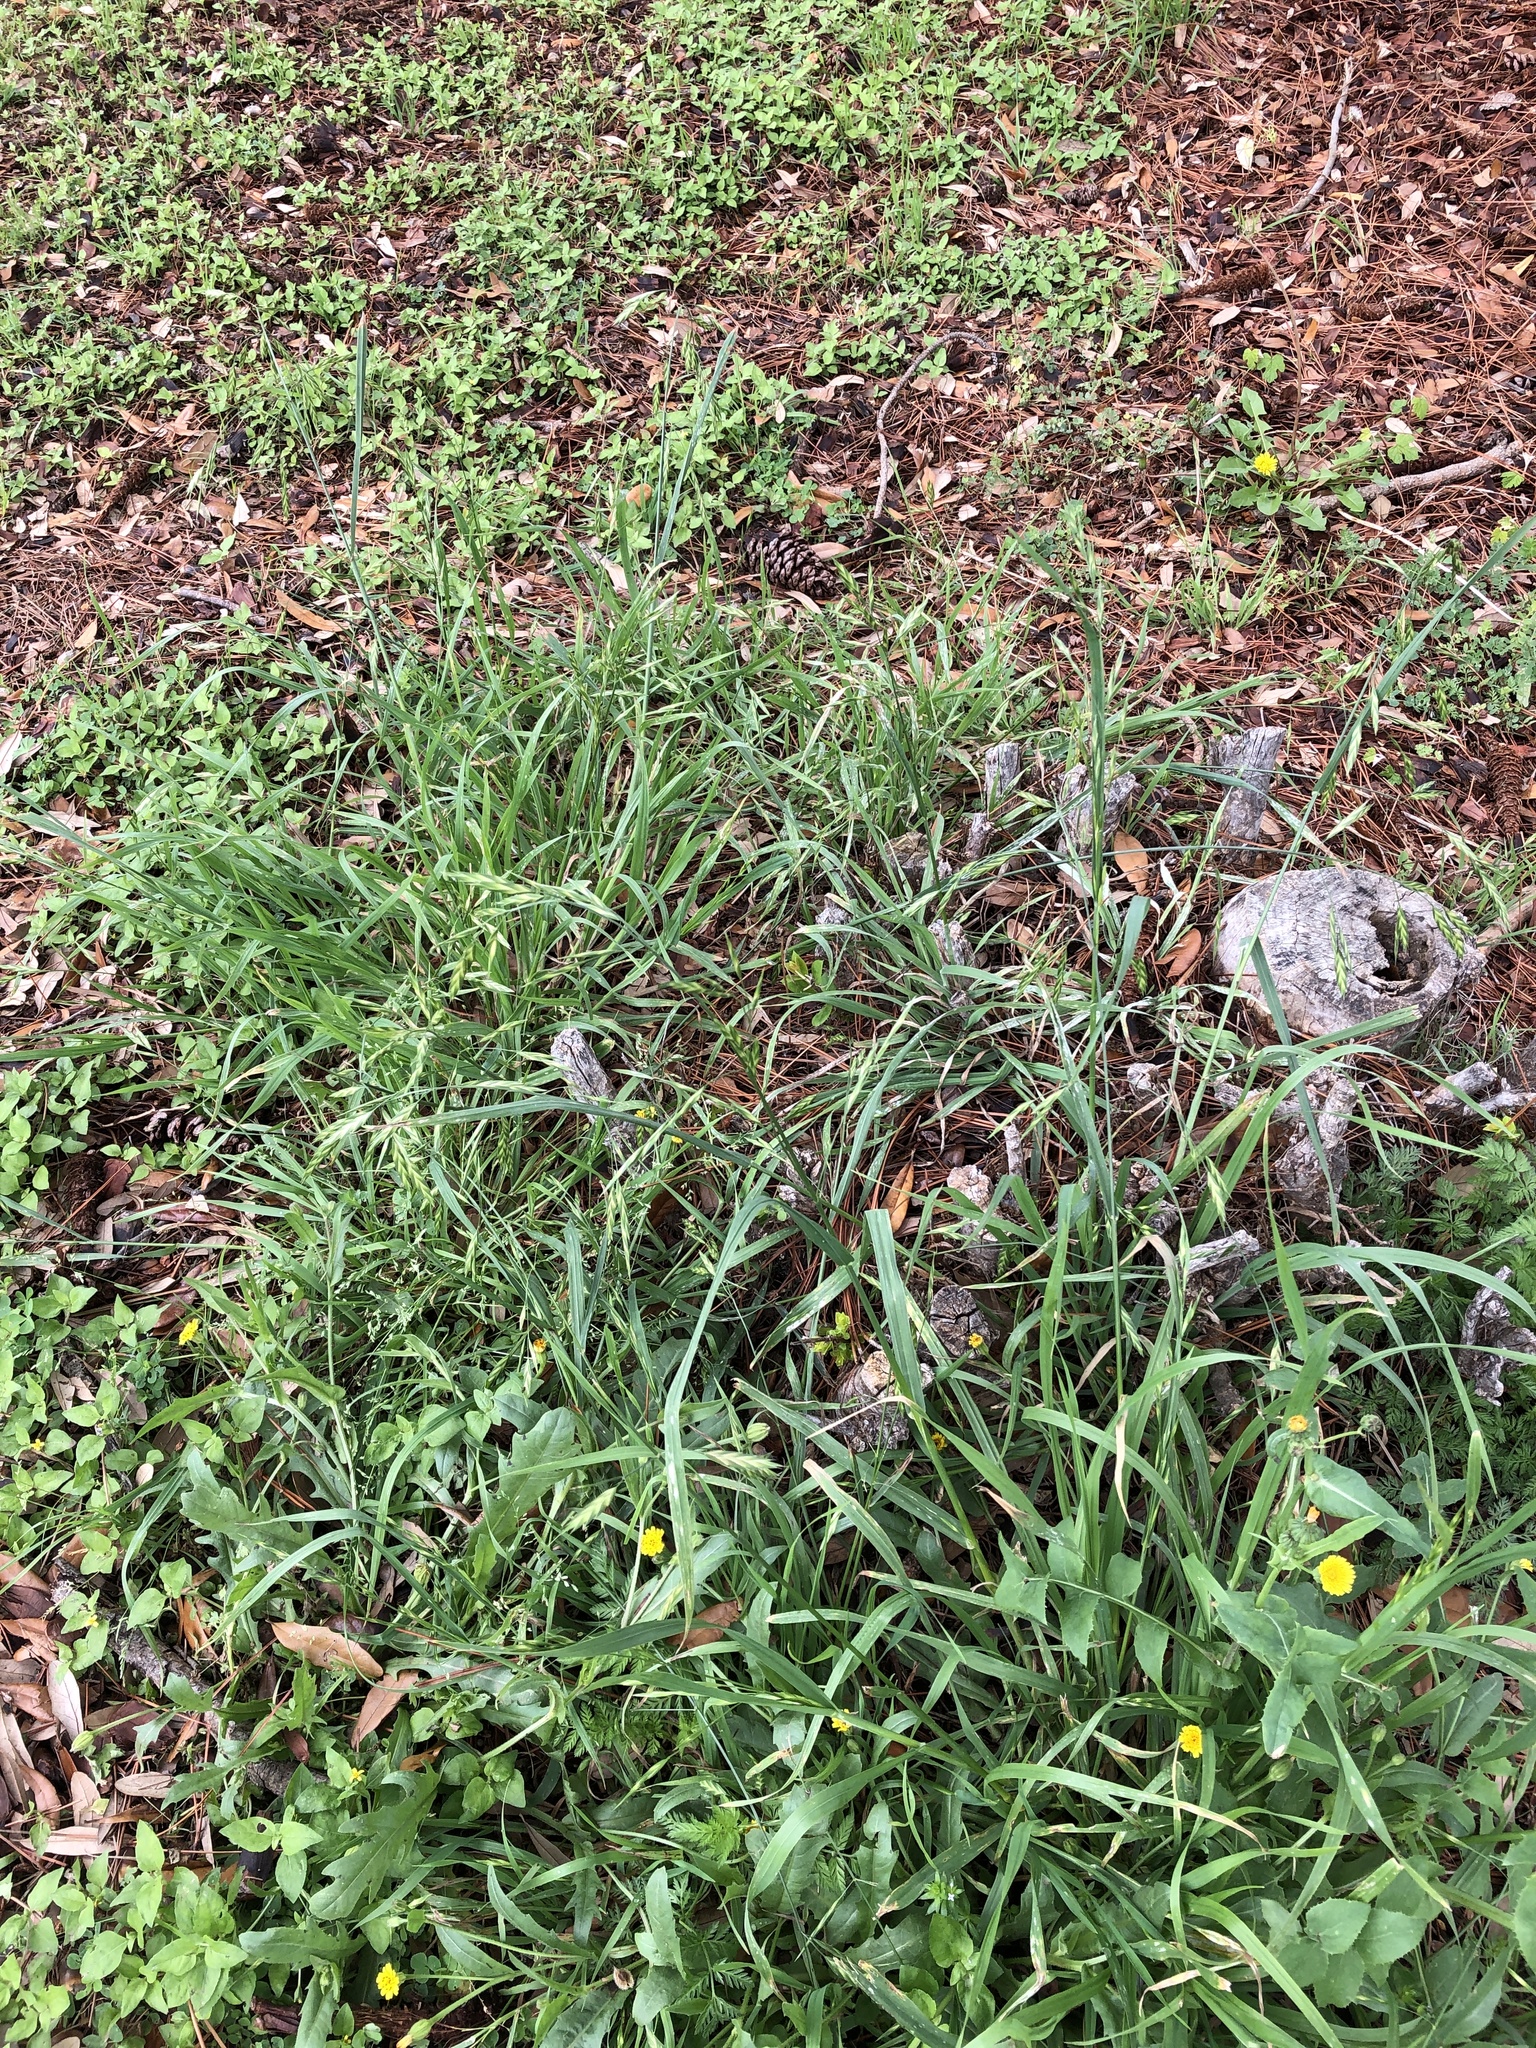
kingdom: Plantae
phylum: Tracheophyta
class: Liliopsida
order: Poales
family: Poaceae
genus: Bromus
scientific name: Bromus catharticus
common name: Rescuegrass
